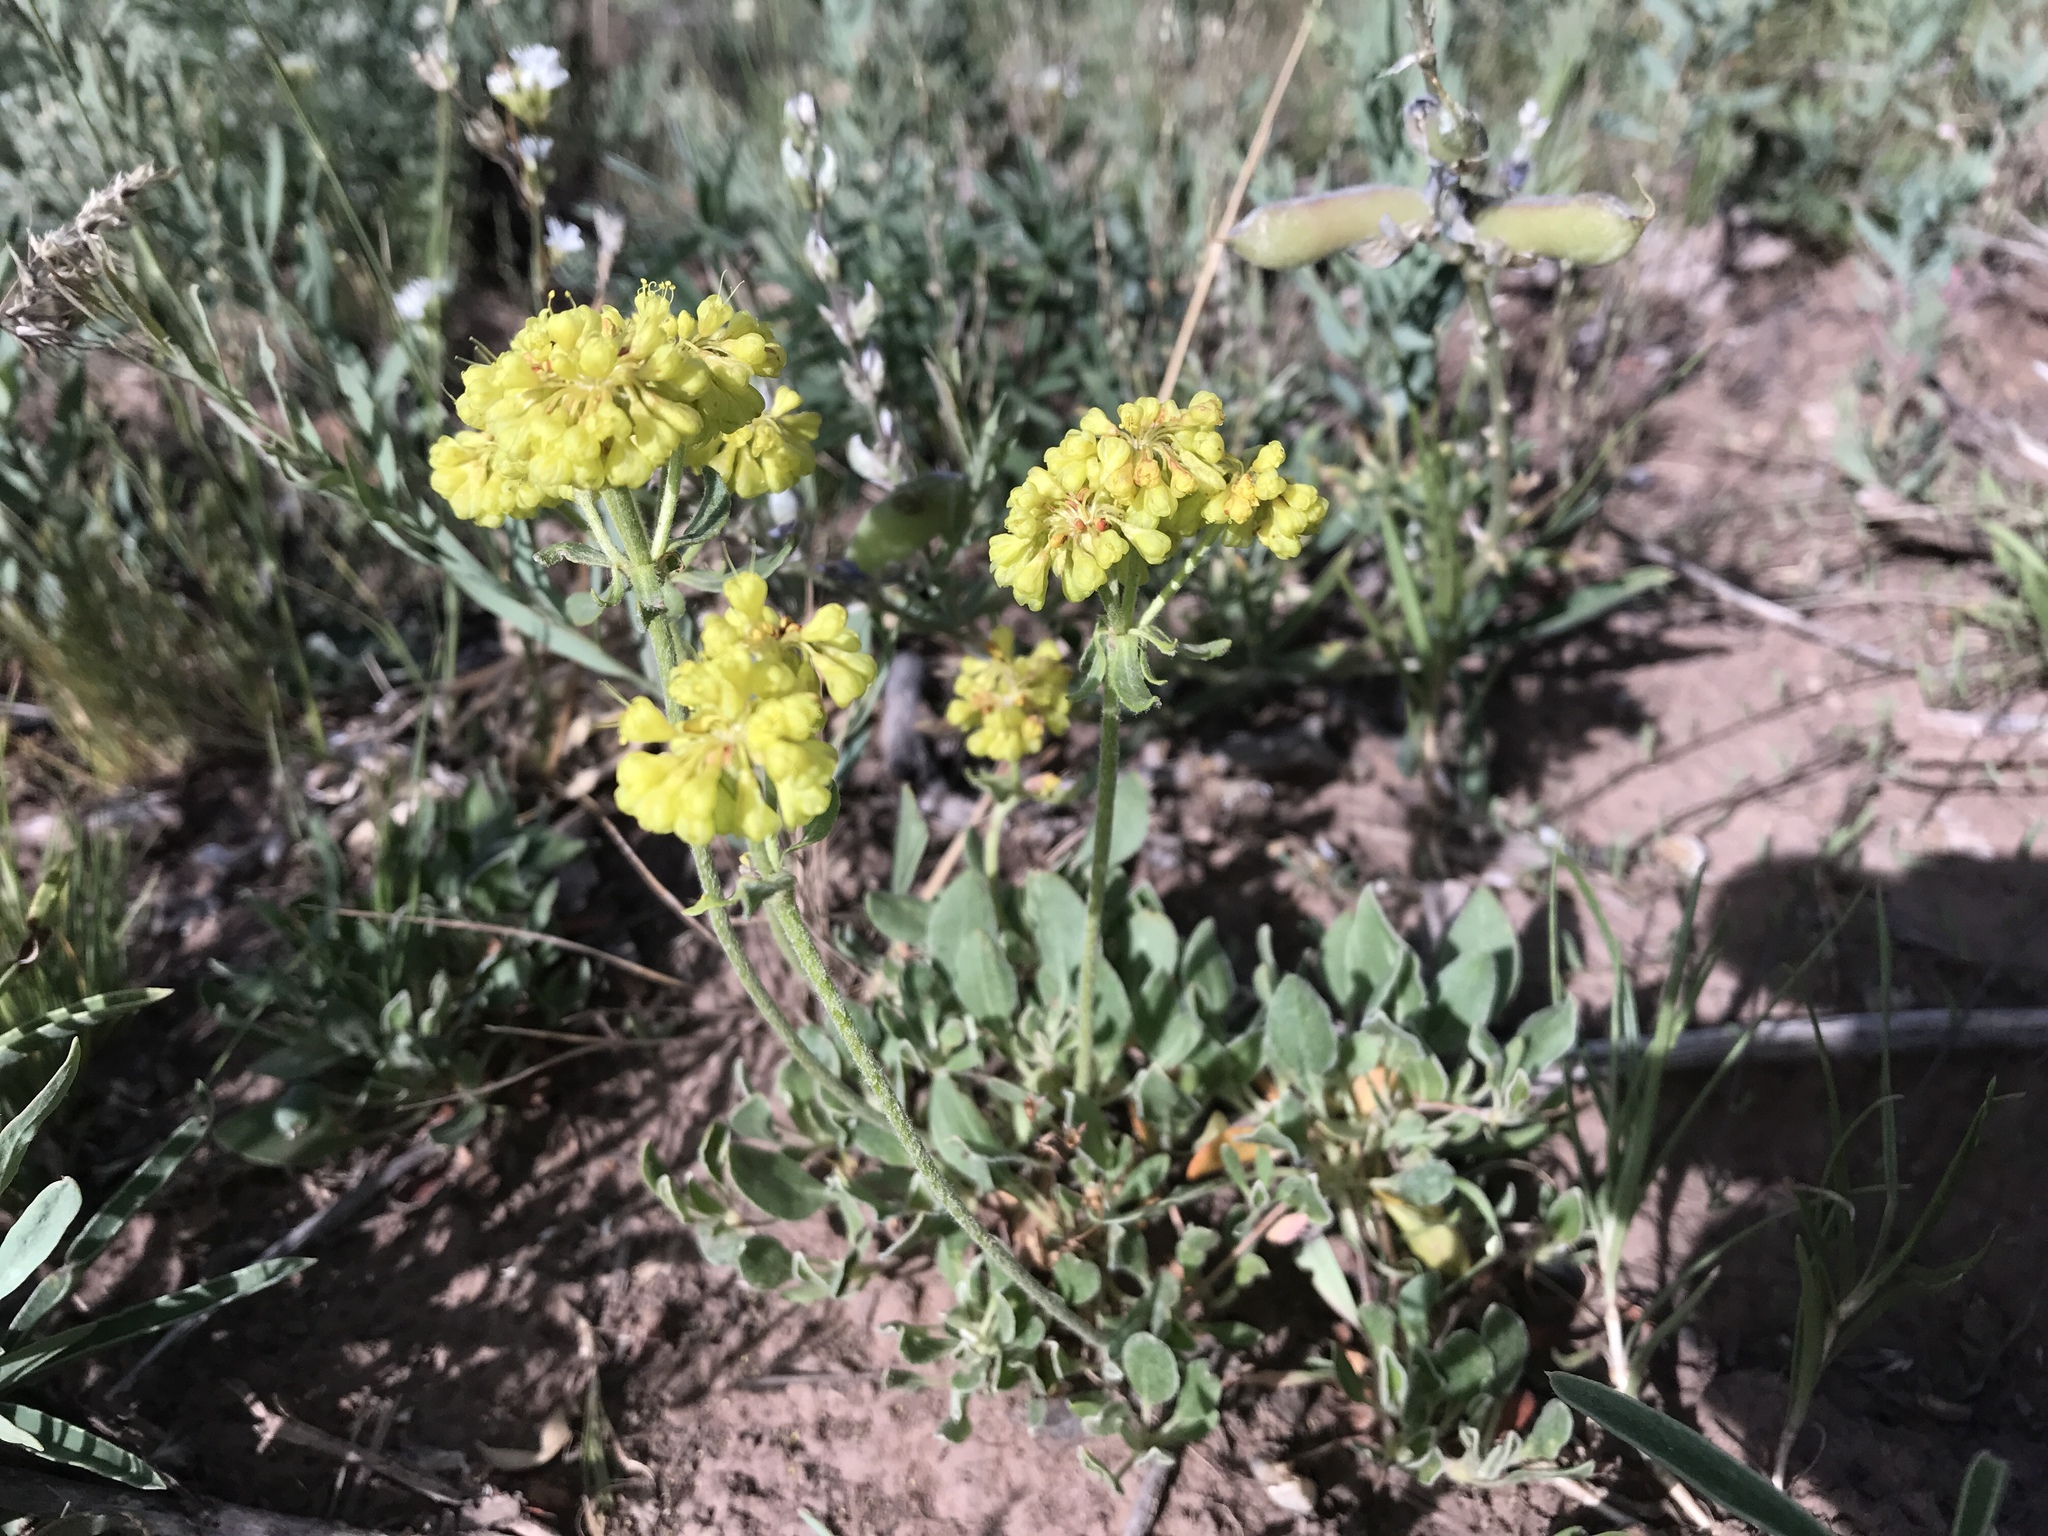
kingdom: Plantae
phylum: Tracheophyta
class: Magnoliopsida
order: Caryophyllales
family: Polygonaceae
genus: Eriogonum
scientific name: Eriogonum umbellatum
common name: Sulfur-buckwheat
